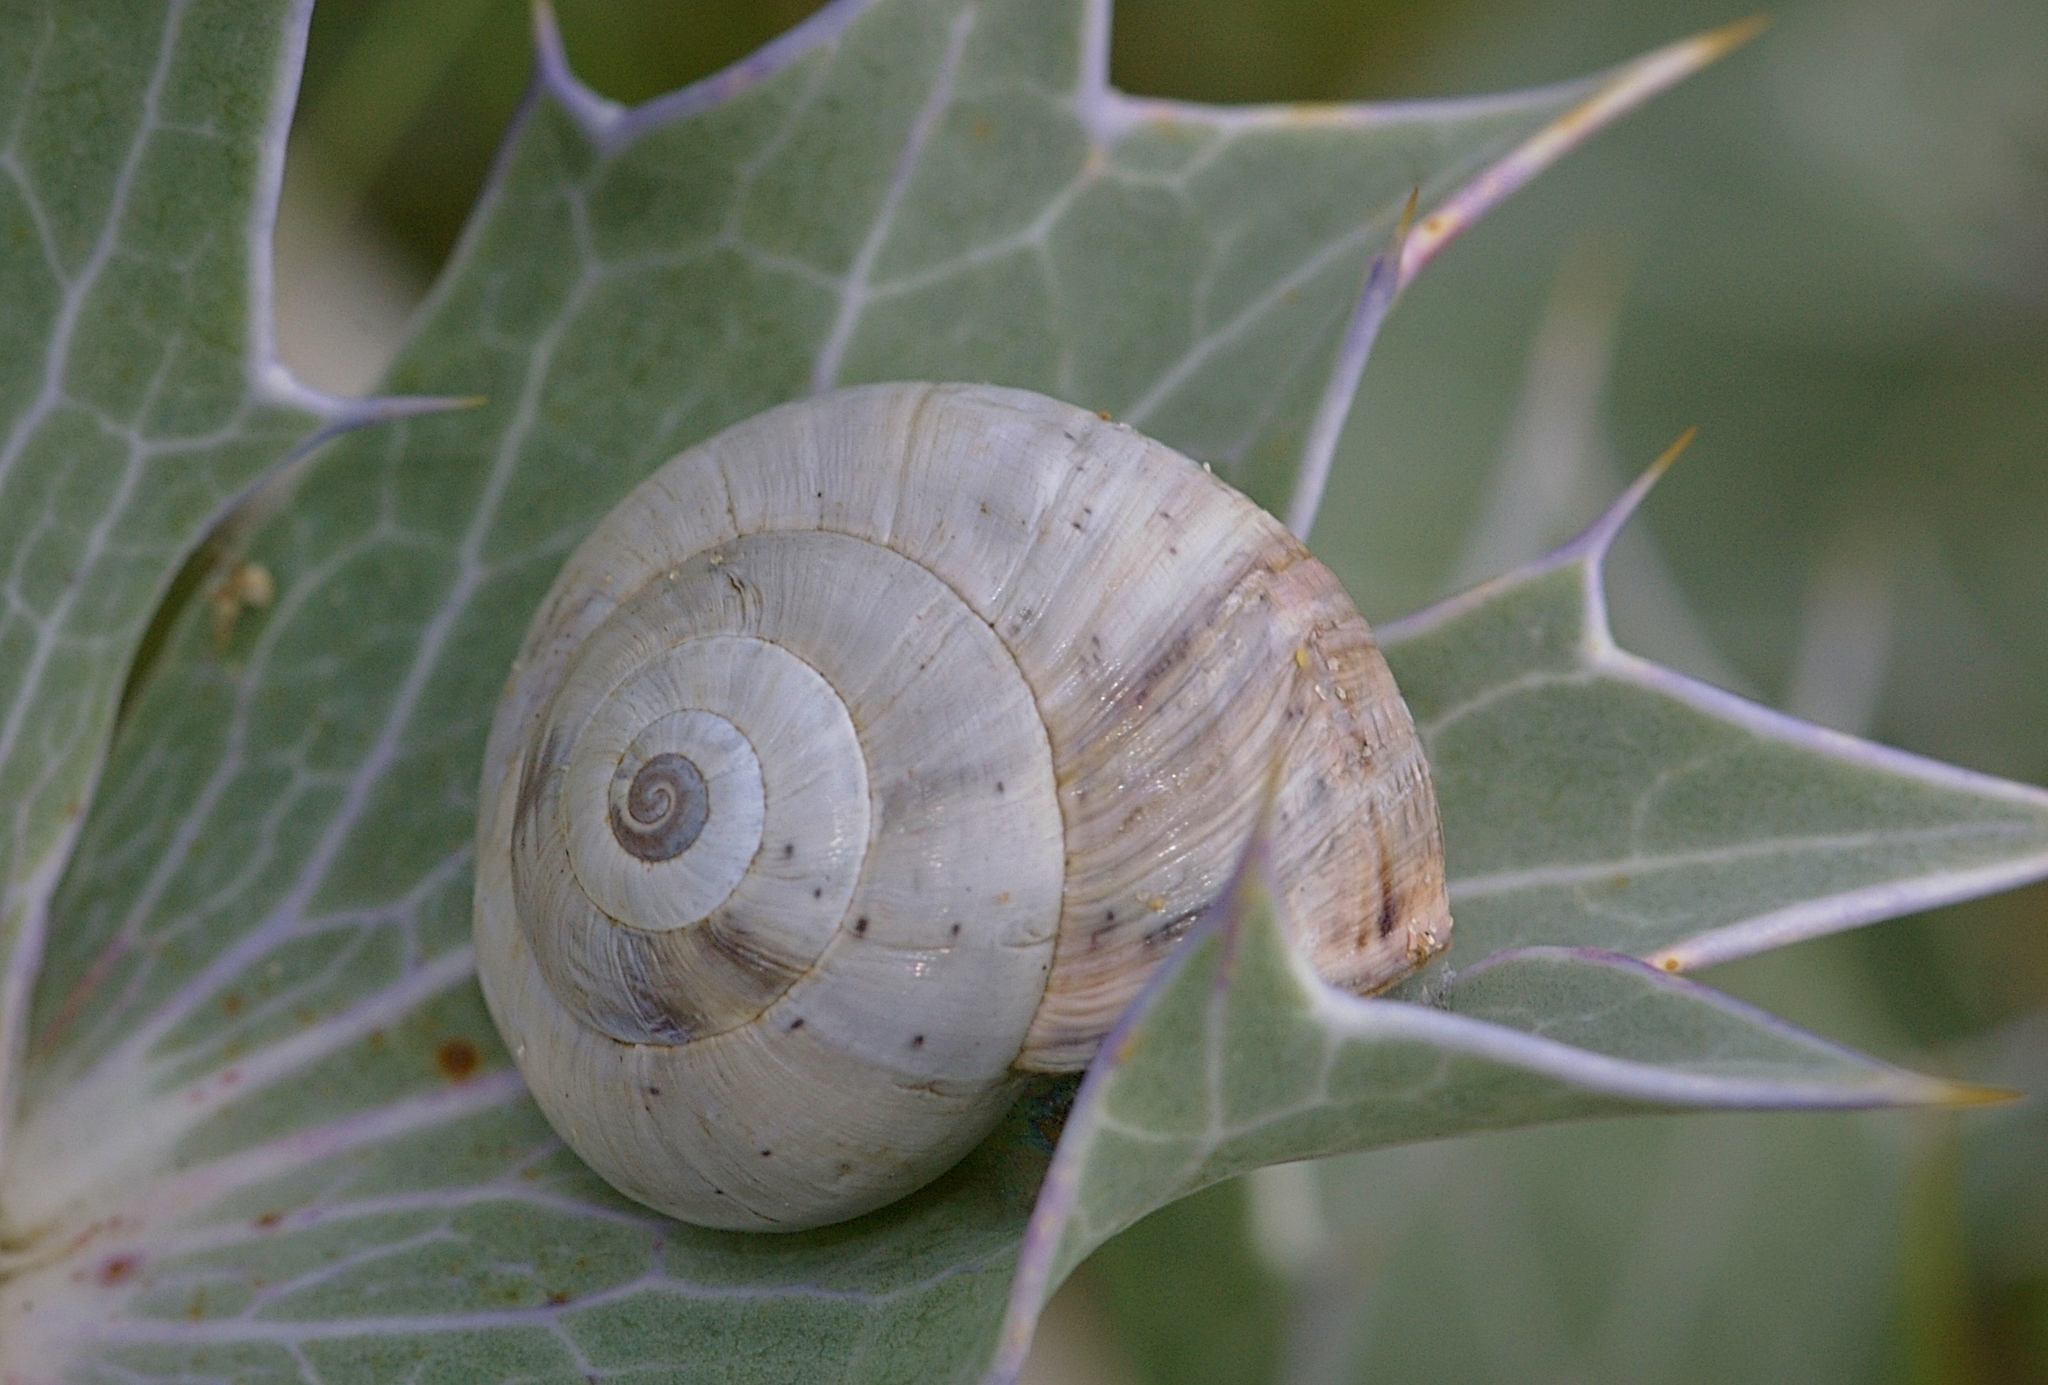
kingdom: Animalia
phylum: Mollusca
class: Gastropoda
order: Stylommatophora
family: Helicidae
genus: Theba
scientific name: Theba pisana
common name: White snail
